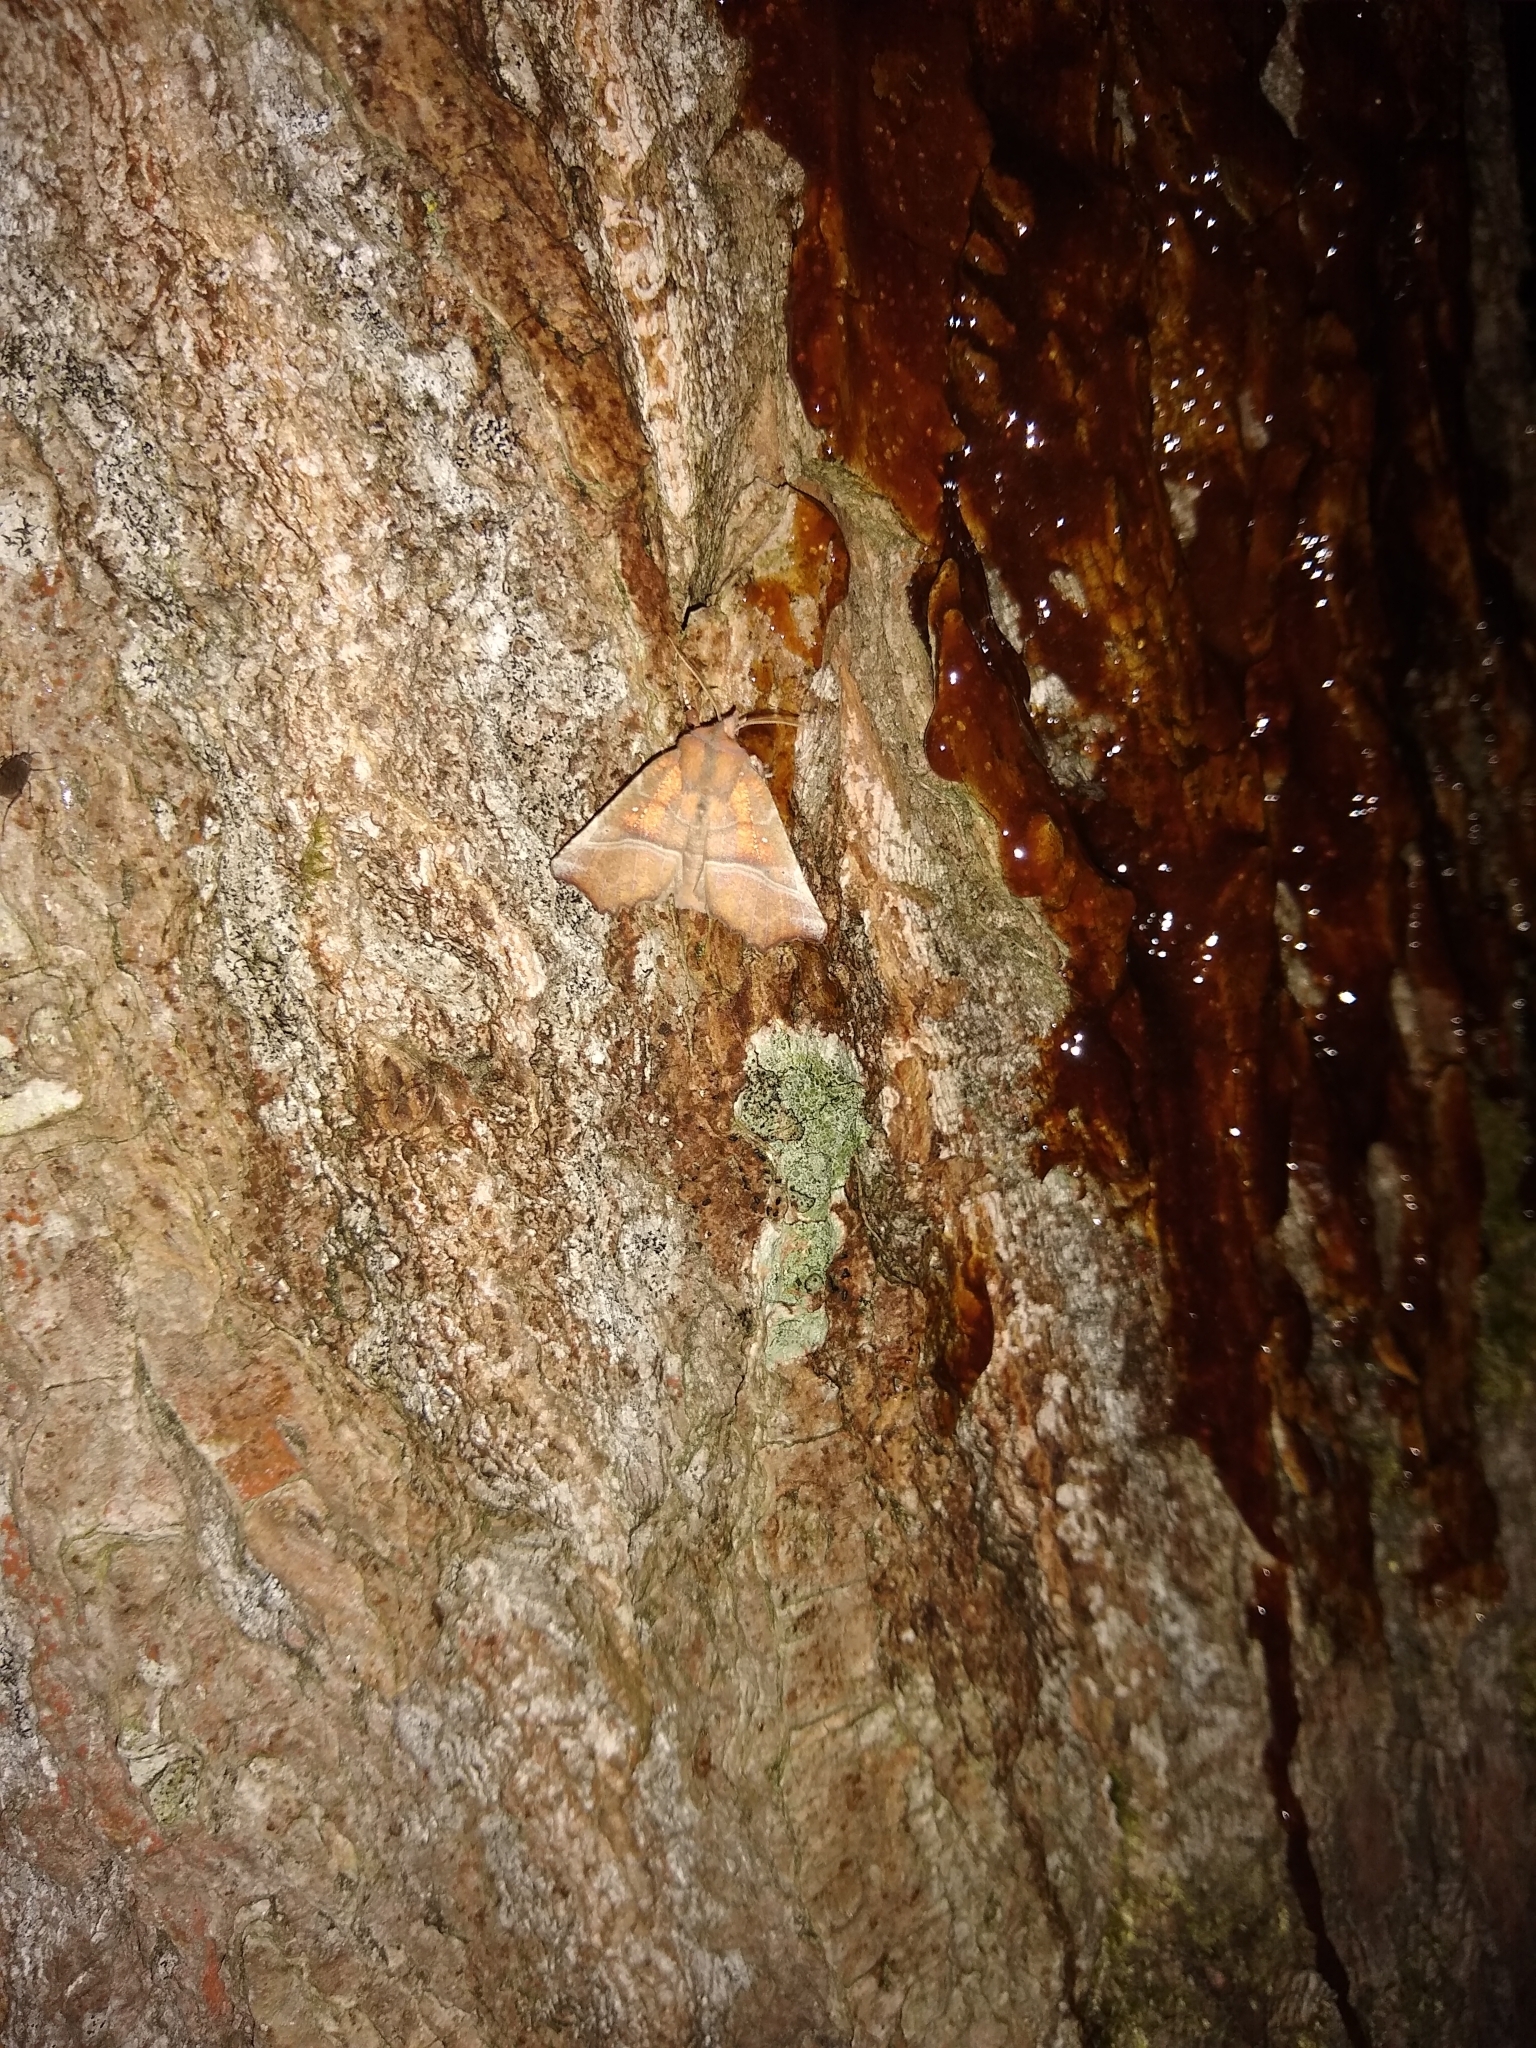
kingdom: Animalia
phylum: Arthropoda
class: Insecta
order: Lepidoptera
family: Erebidae
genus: Scoliopteryx
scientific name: Scoliopteryx libatrix
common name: Herald
